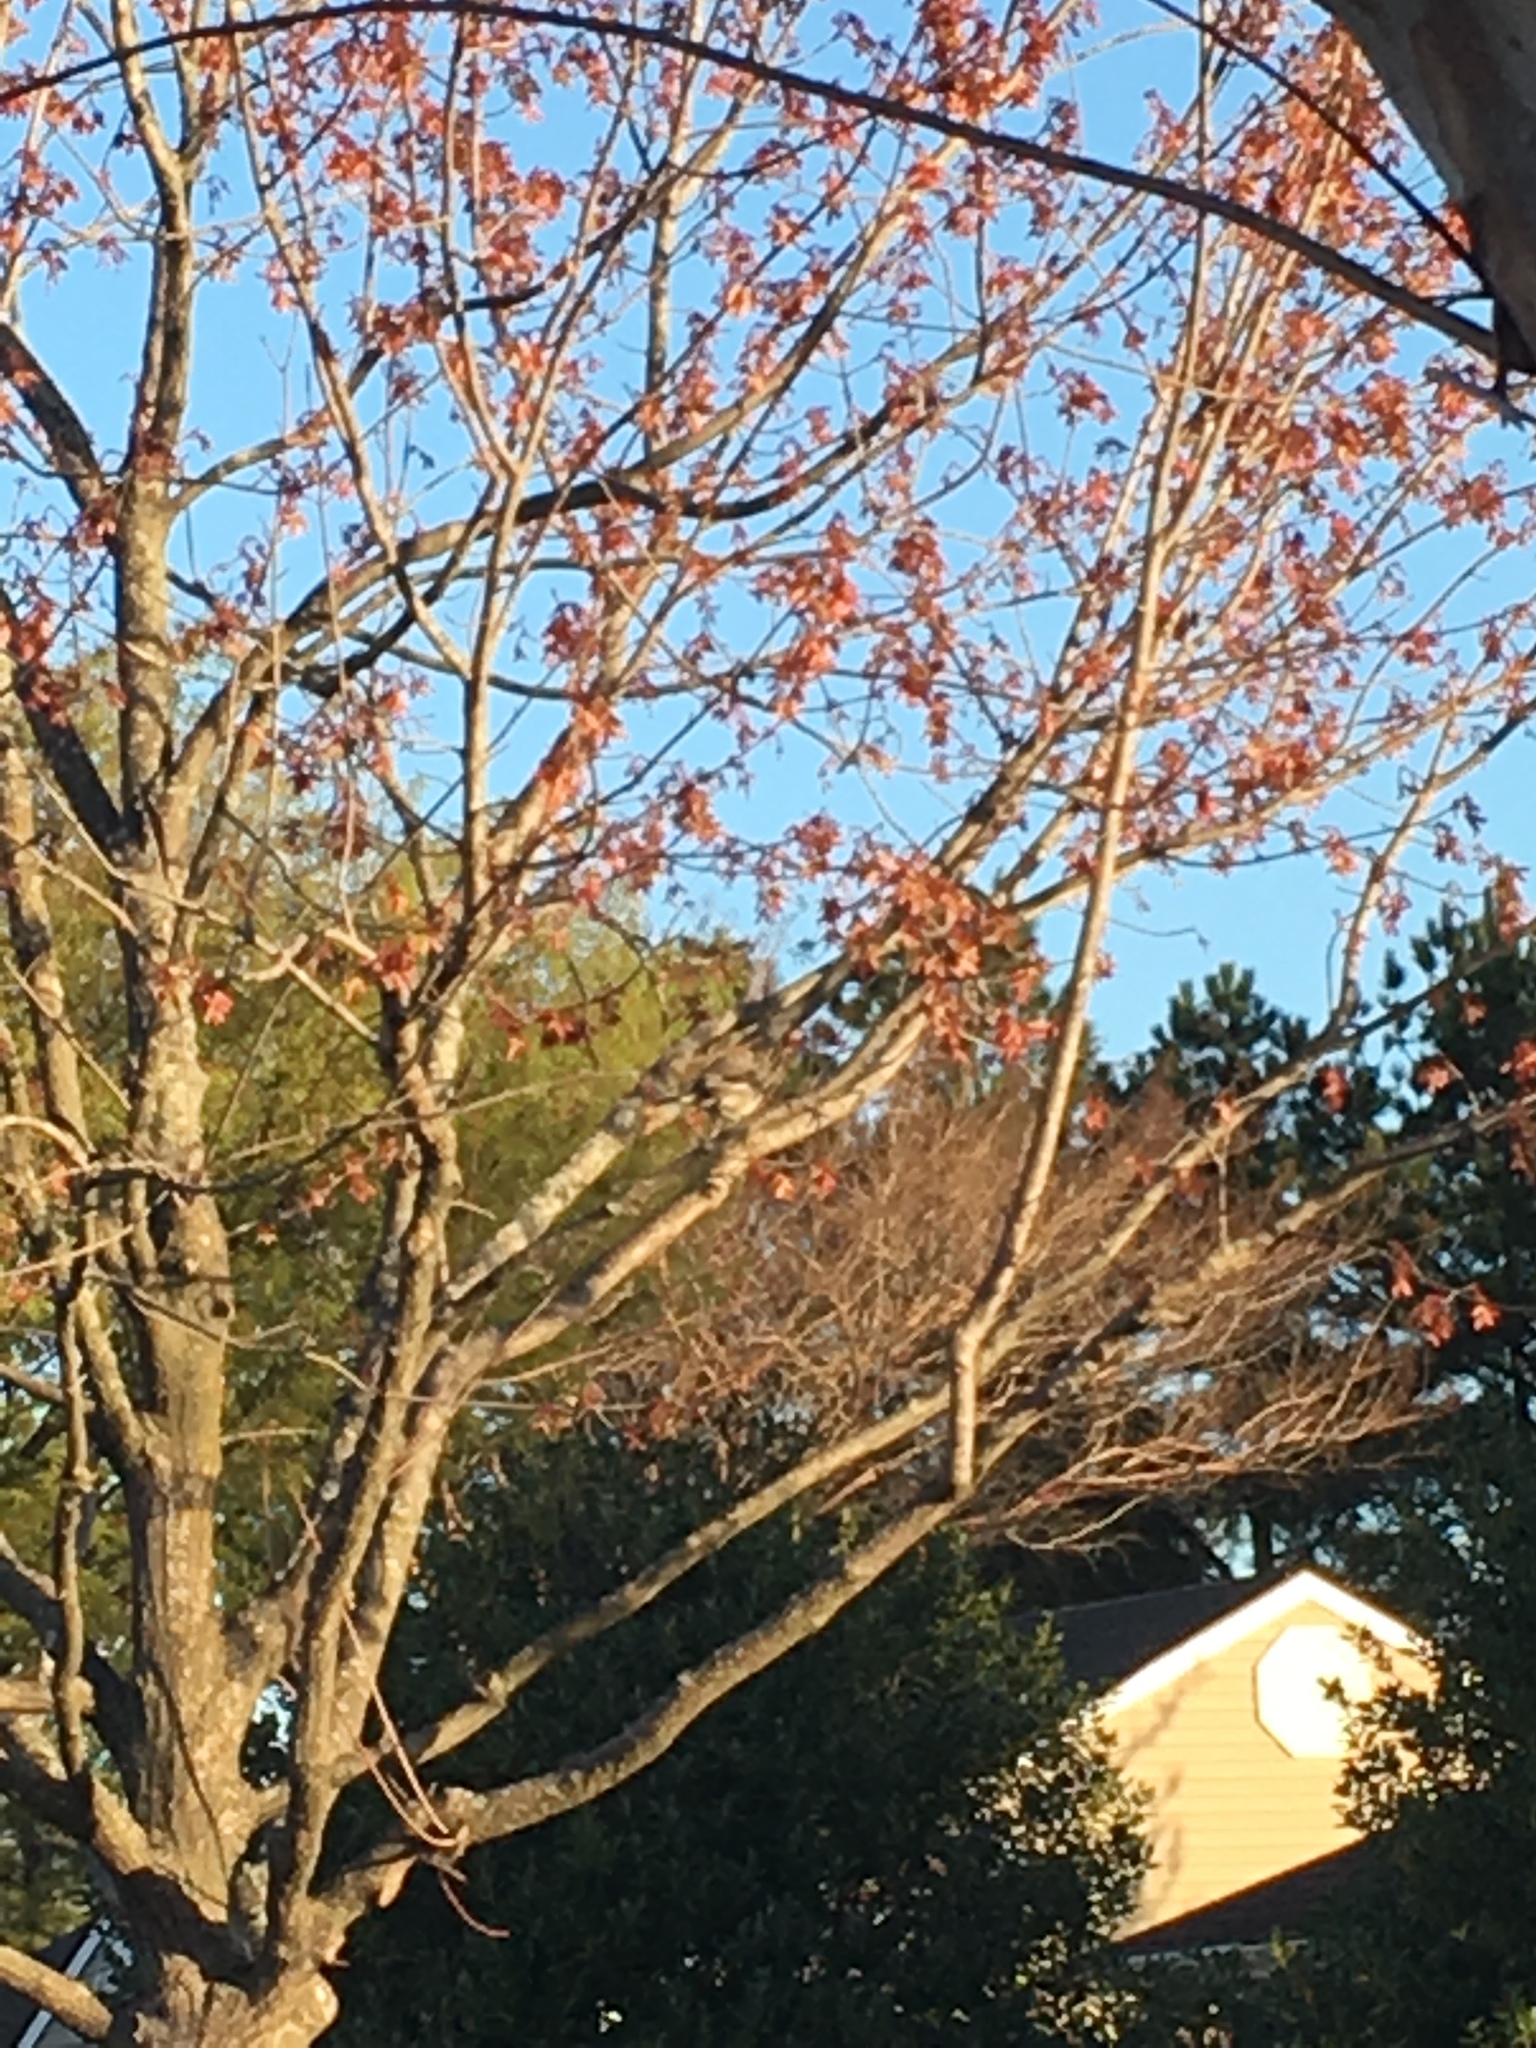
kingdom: Animalia
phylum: Chordata
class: Aves
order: Passeriformes
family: Mimidae
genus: Mimus
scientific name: Mimus polyglottos
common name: Northern mockingbird
